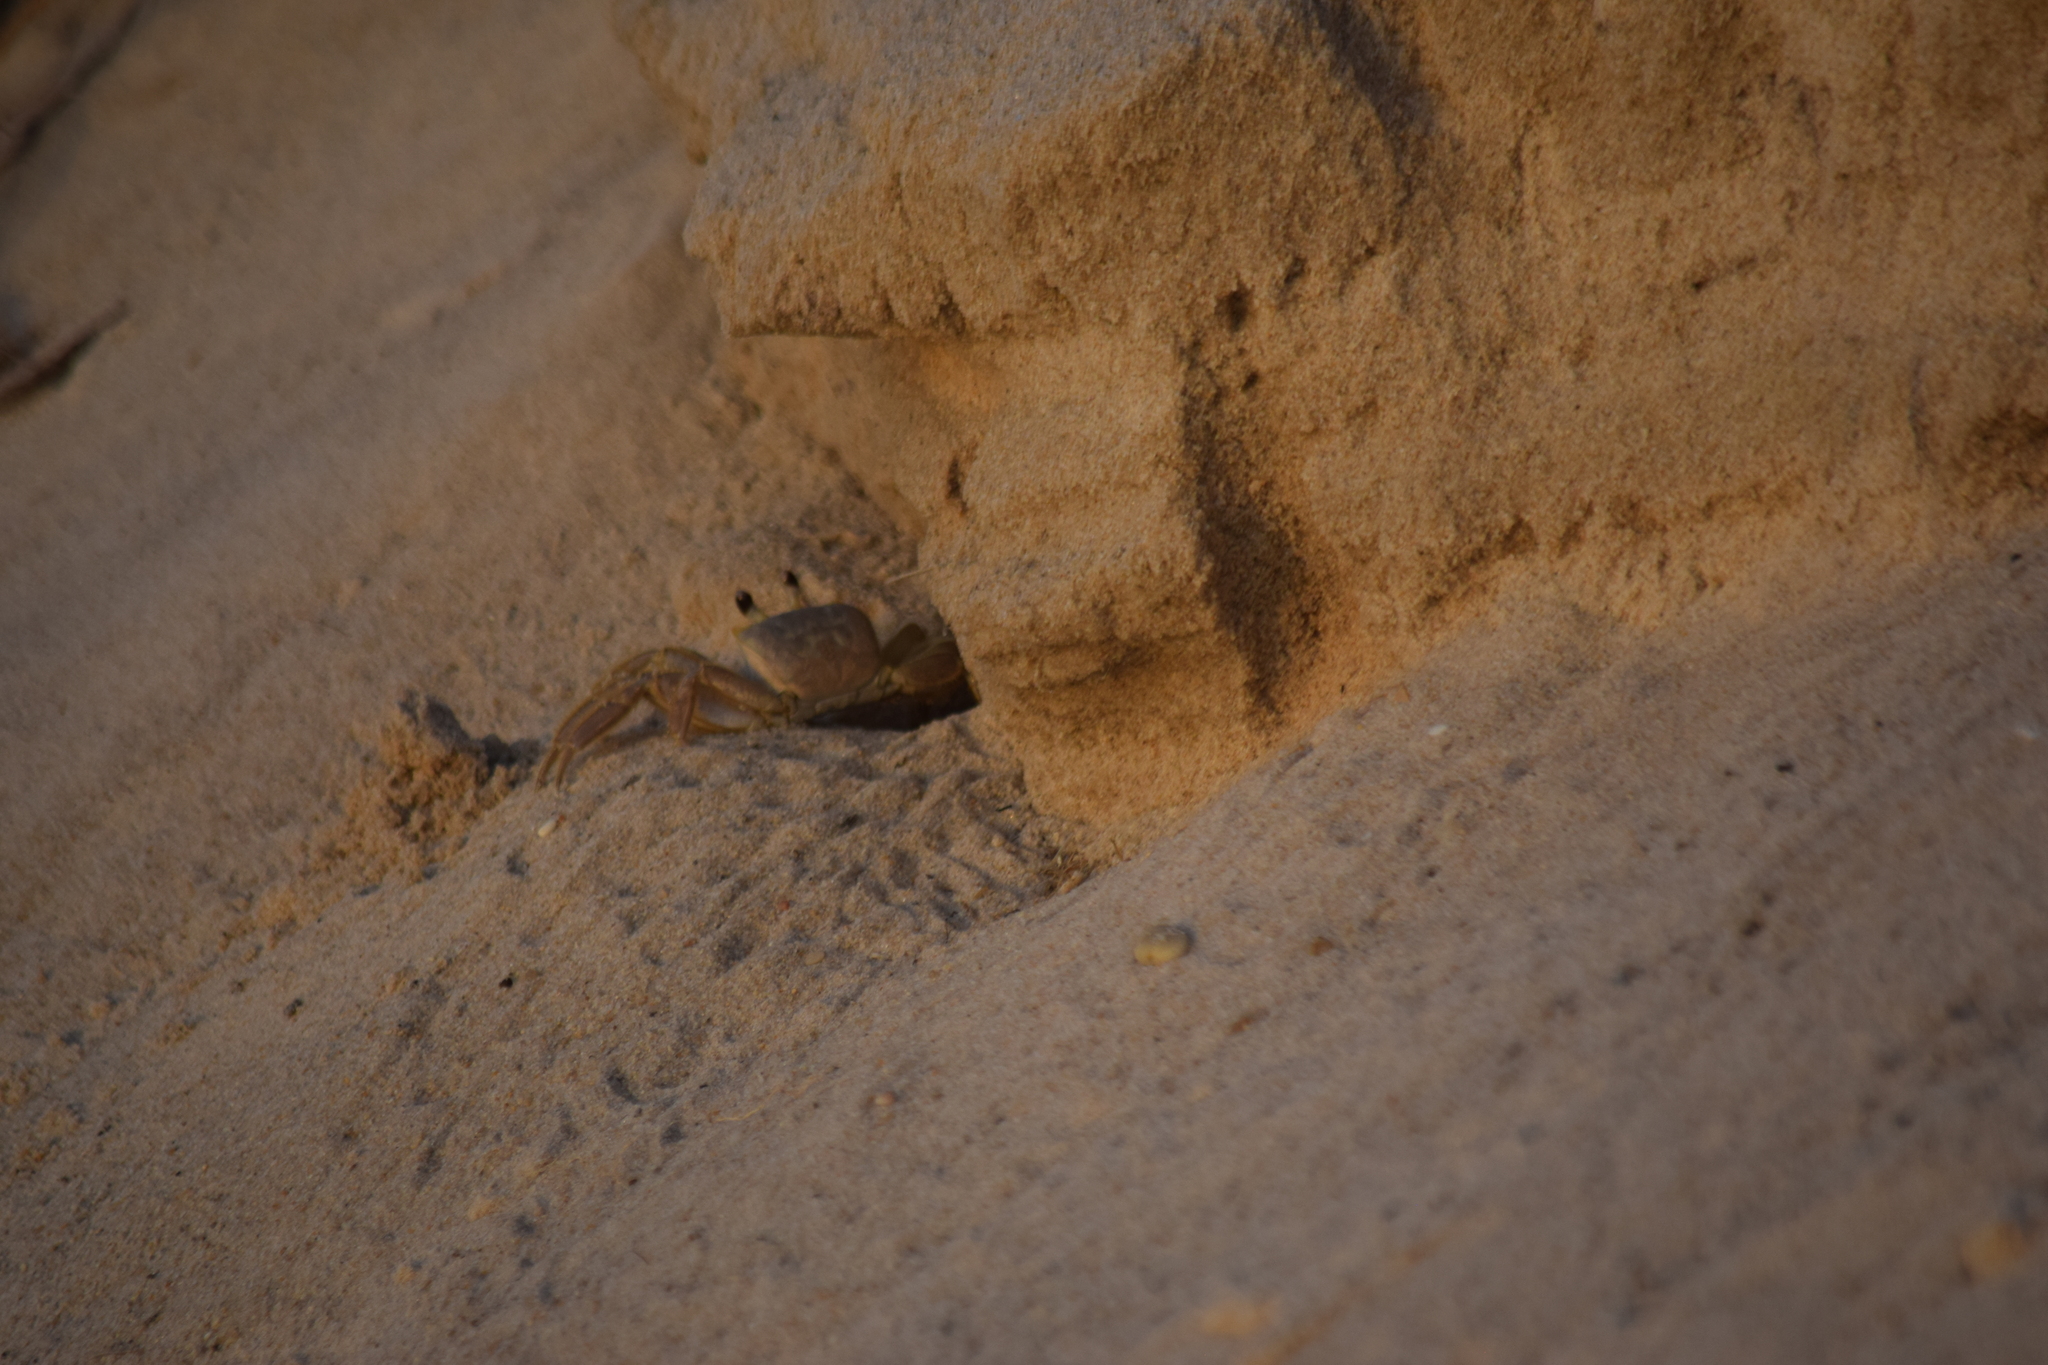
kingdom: Animalia
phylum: Arthropoda
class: Malacostraca
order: Decapoda
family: Ocypodidae
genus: Ocypode
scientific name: Ocypode quadrata
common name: Ghost crab
